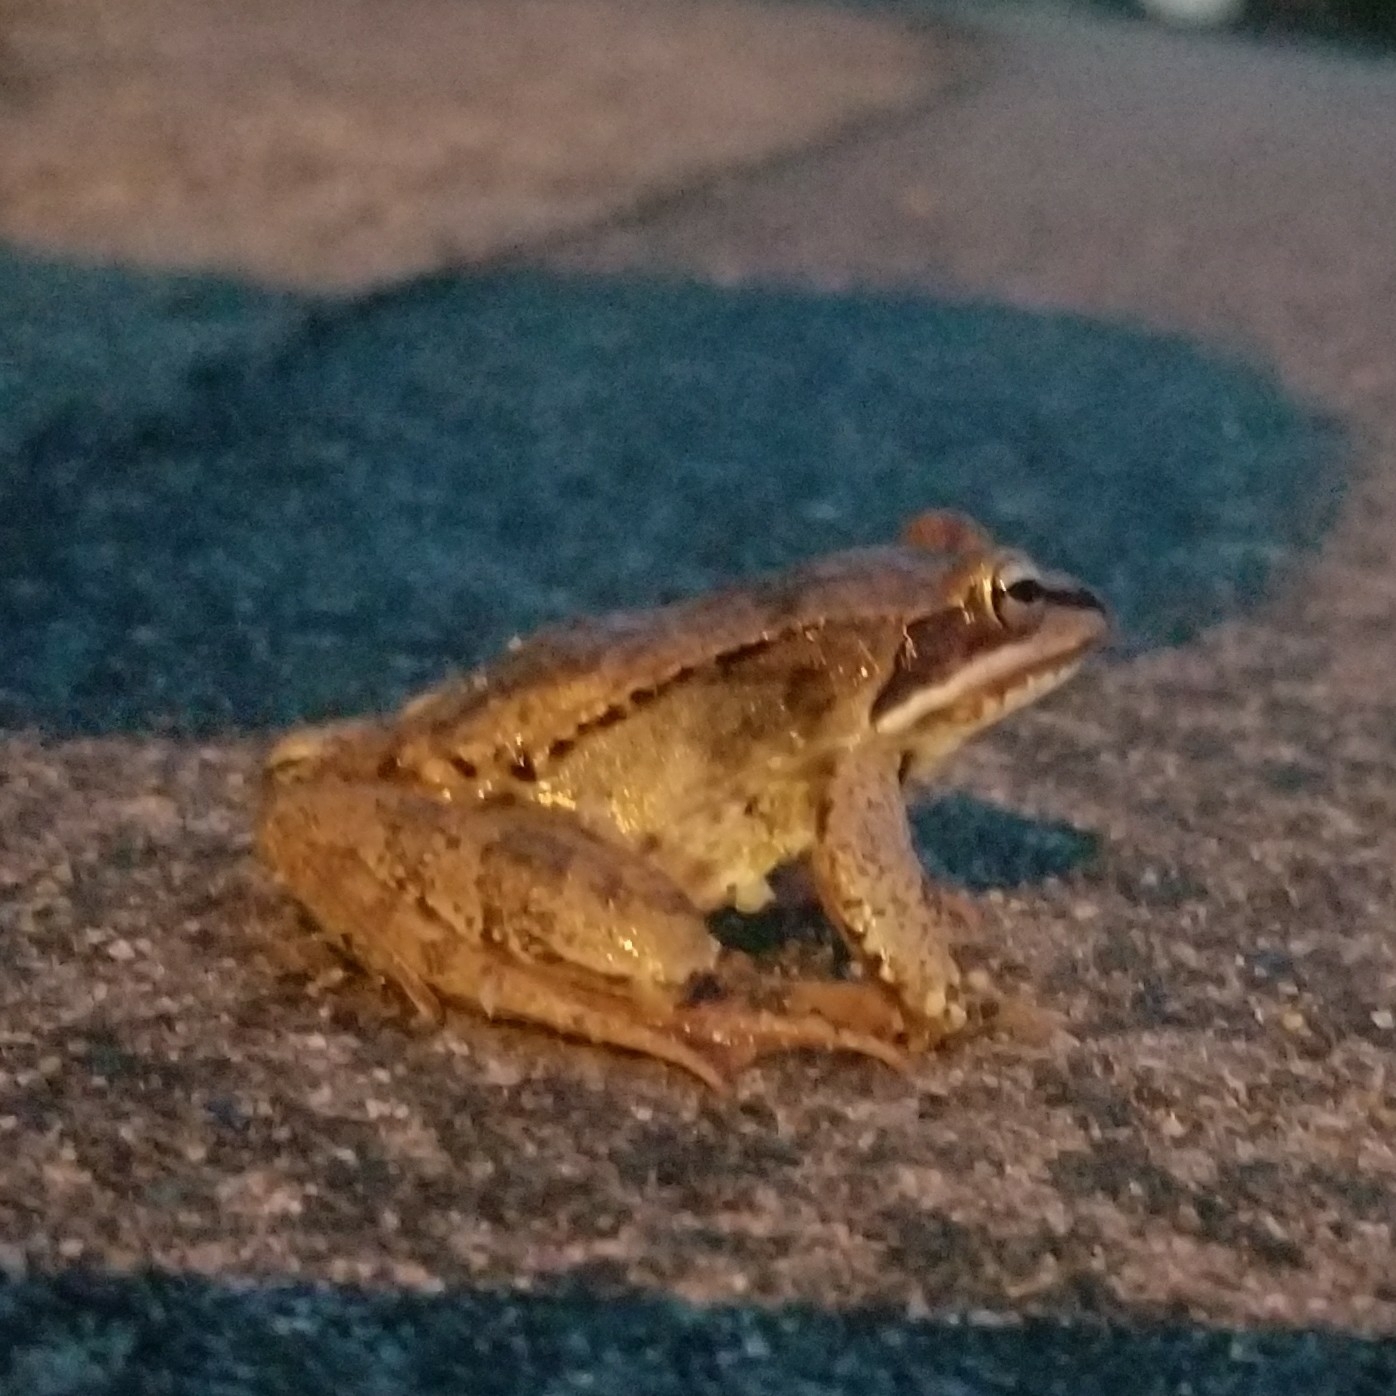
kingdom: Animalia
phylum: Chordata
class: Amphibia
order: Anura
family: Ranidae
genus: Lithobates
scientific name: Lithobates sylvaticus
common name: Wood frog
